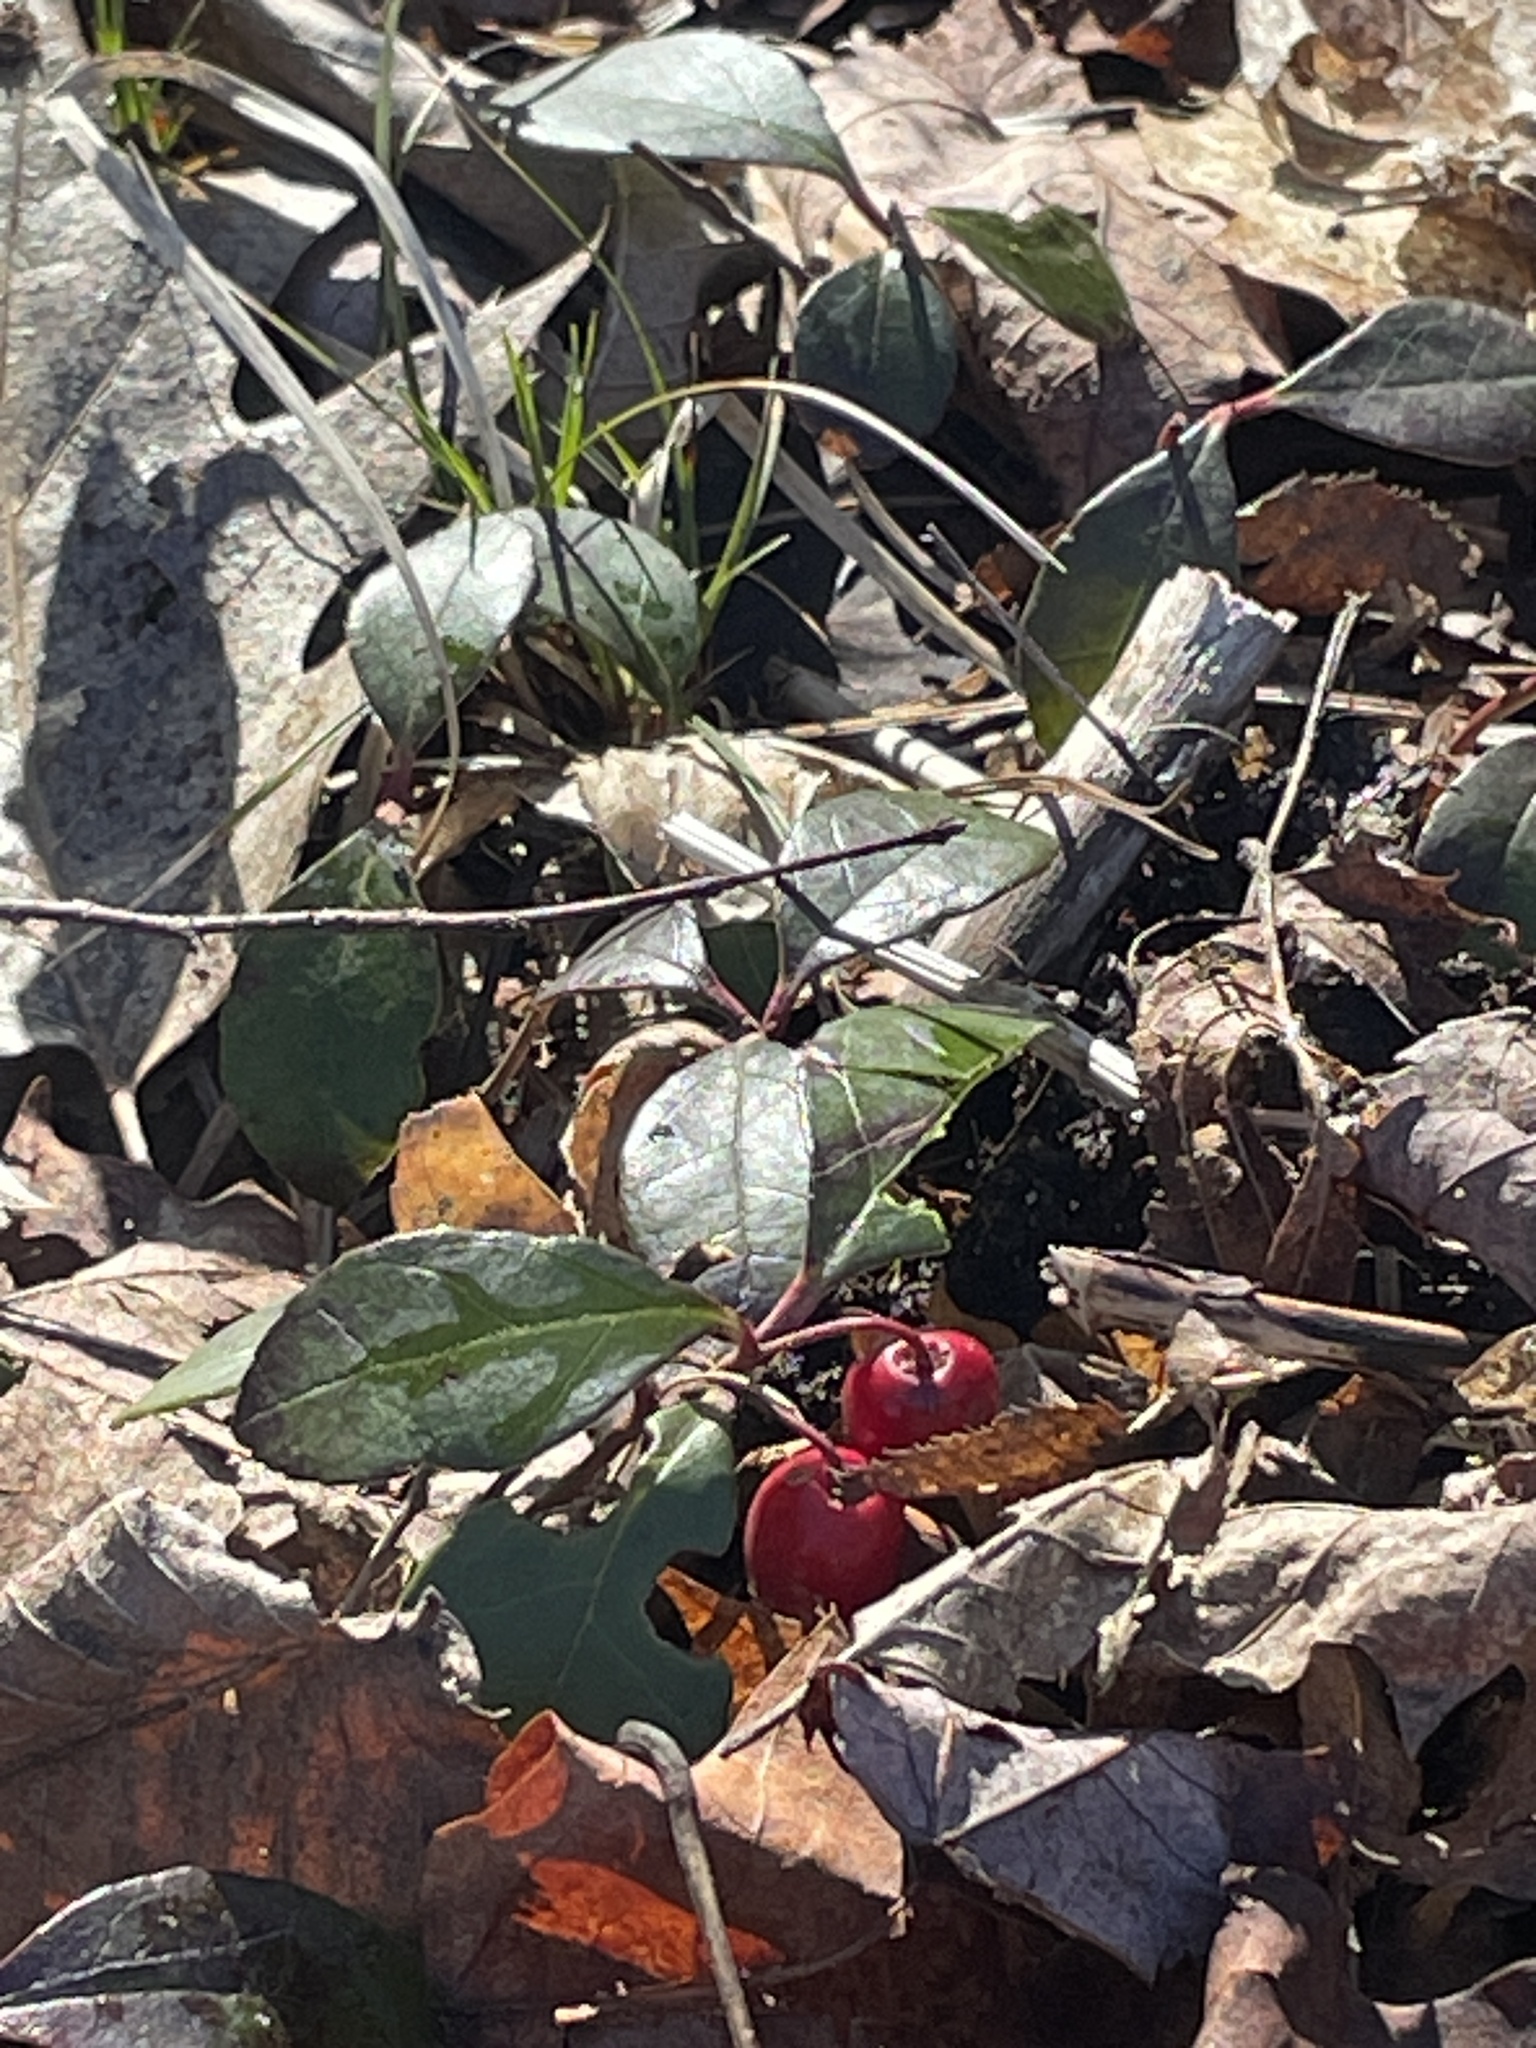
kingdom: Plantae
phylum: Tracheophyta
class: Magnoliopsida
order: Ericales
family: Ericaceae
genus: Gaultheria
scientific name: Gaultheria procumbens
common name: Checkerberry
